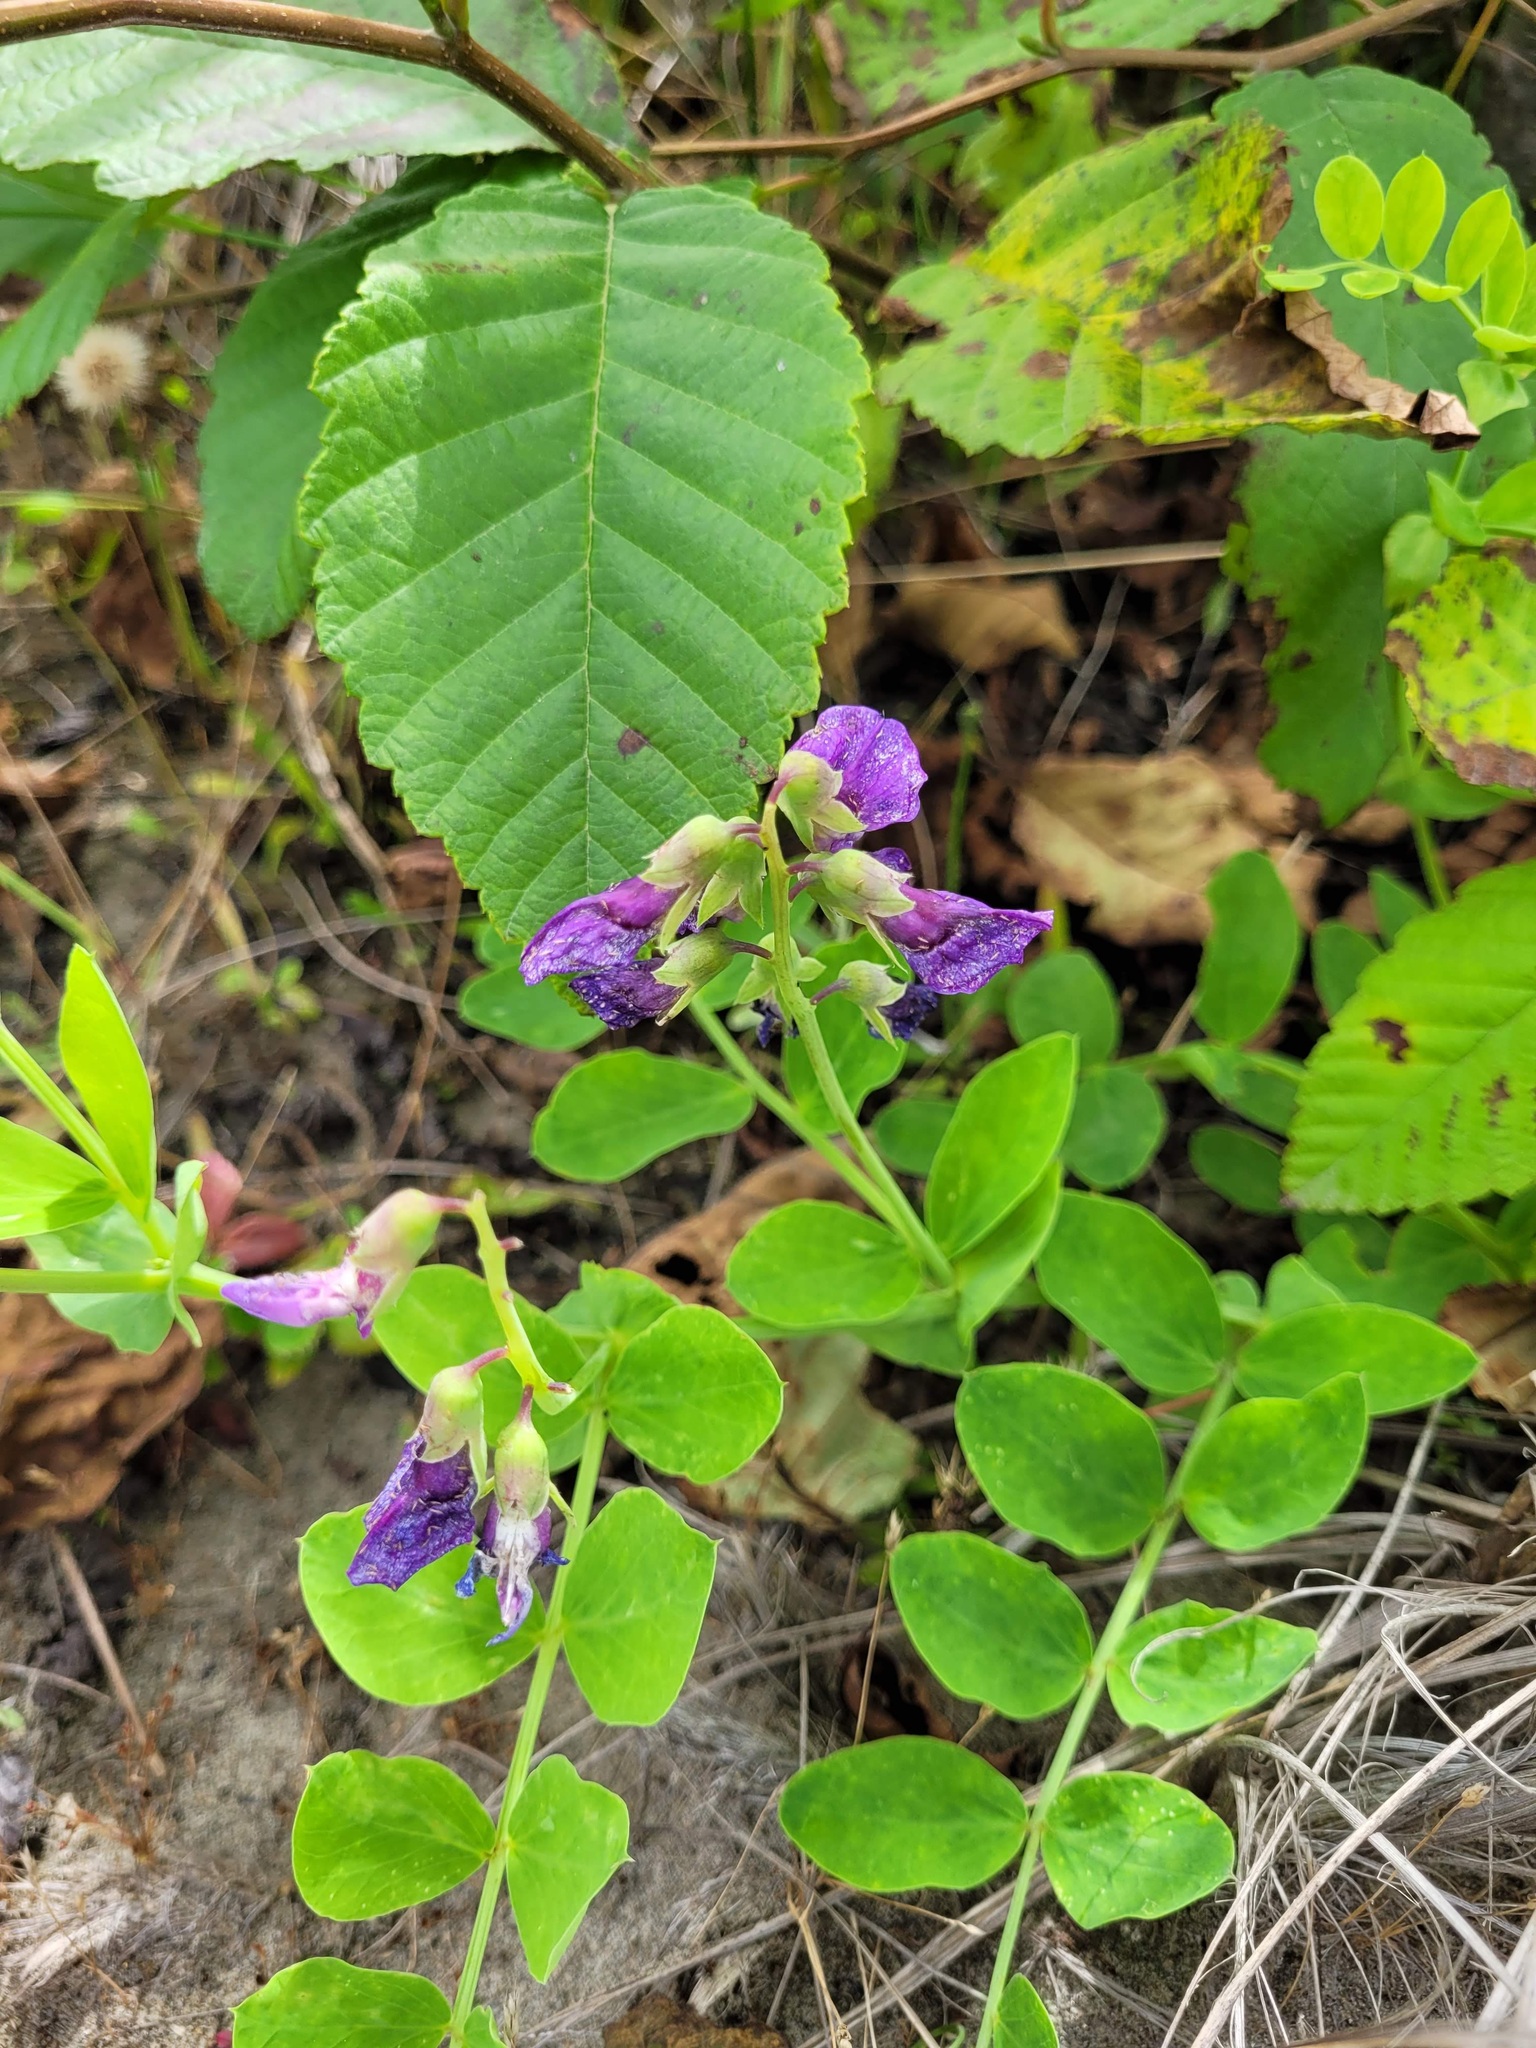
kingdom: Plantae
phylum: Tracheophyta
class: Magnoliopsida
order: Fabales
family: Fabaceae
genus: Lathyrus
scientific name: Lathyrus japonicus
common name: Sea pea
